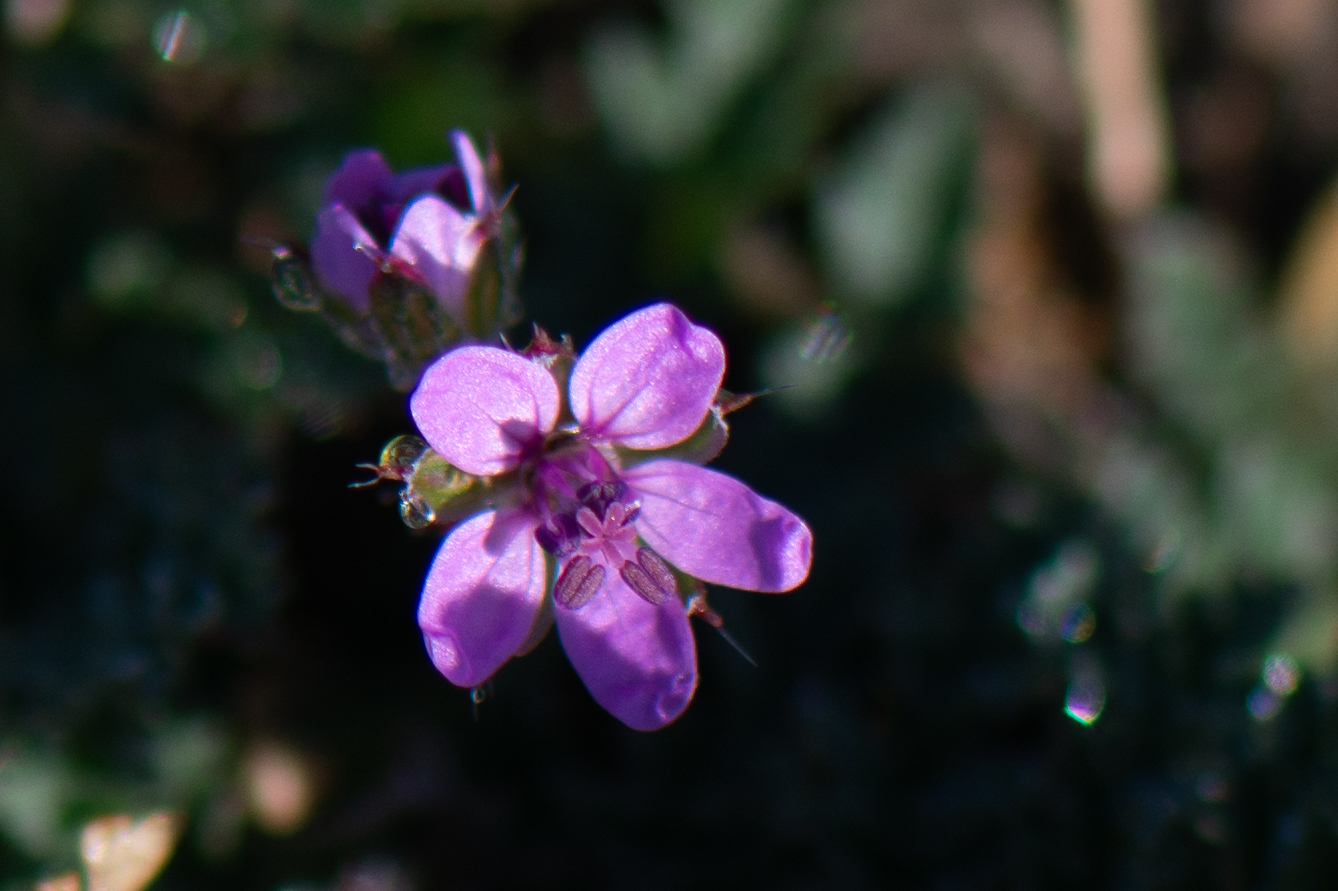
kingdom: Plantae
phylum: Tracheophyta
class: Magnoliopsida
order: Geraniales
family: Geraniaceae
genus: Erodium
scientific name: Erodium cicutarium
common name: Common stork's-bill
